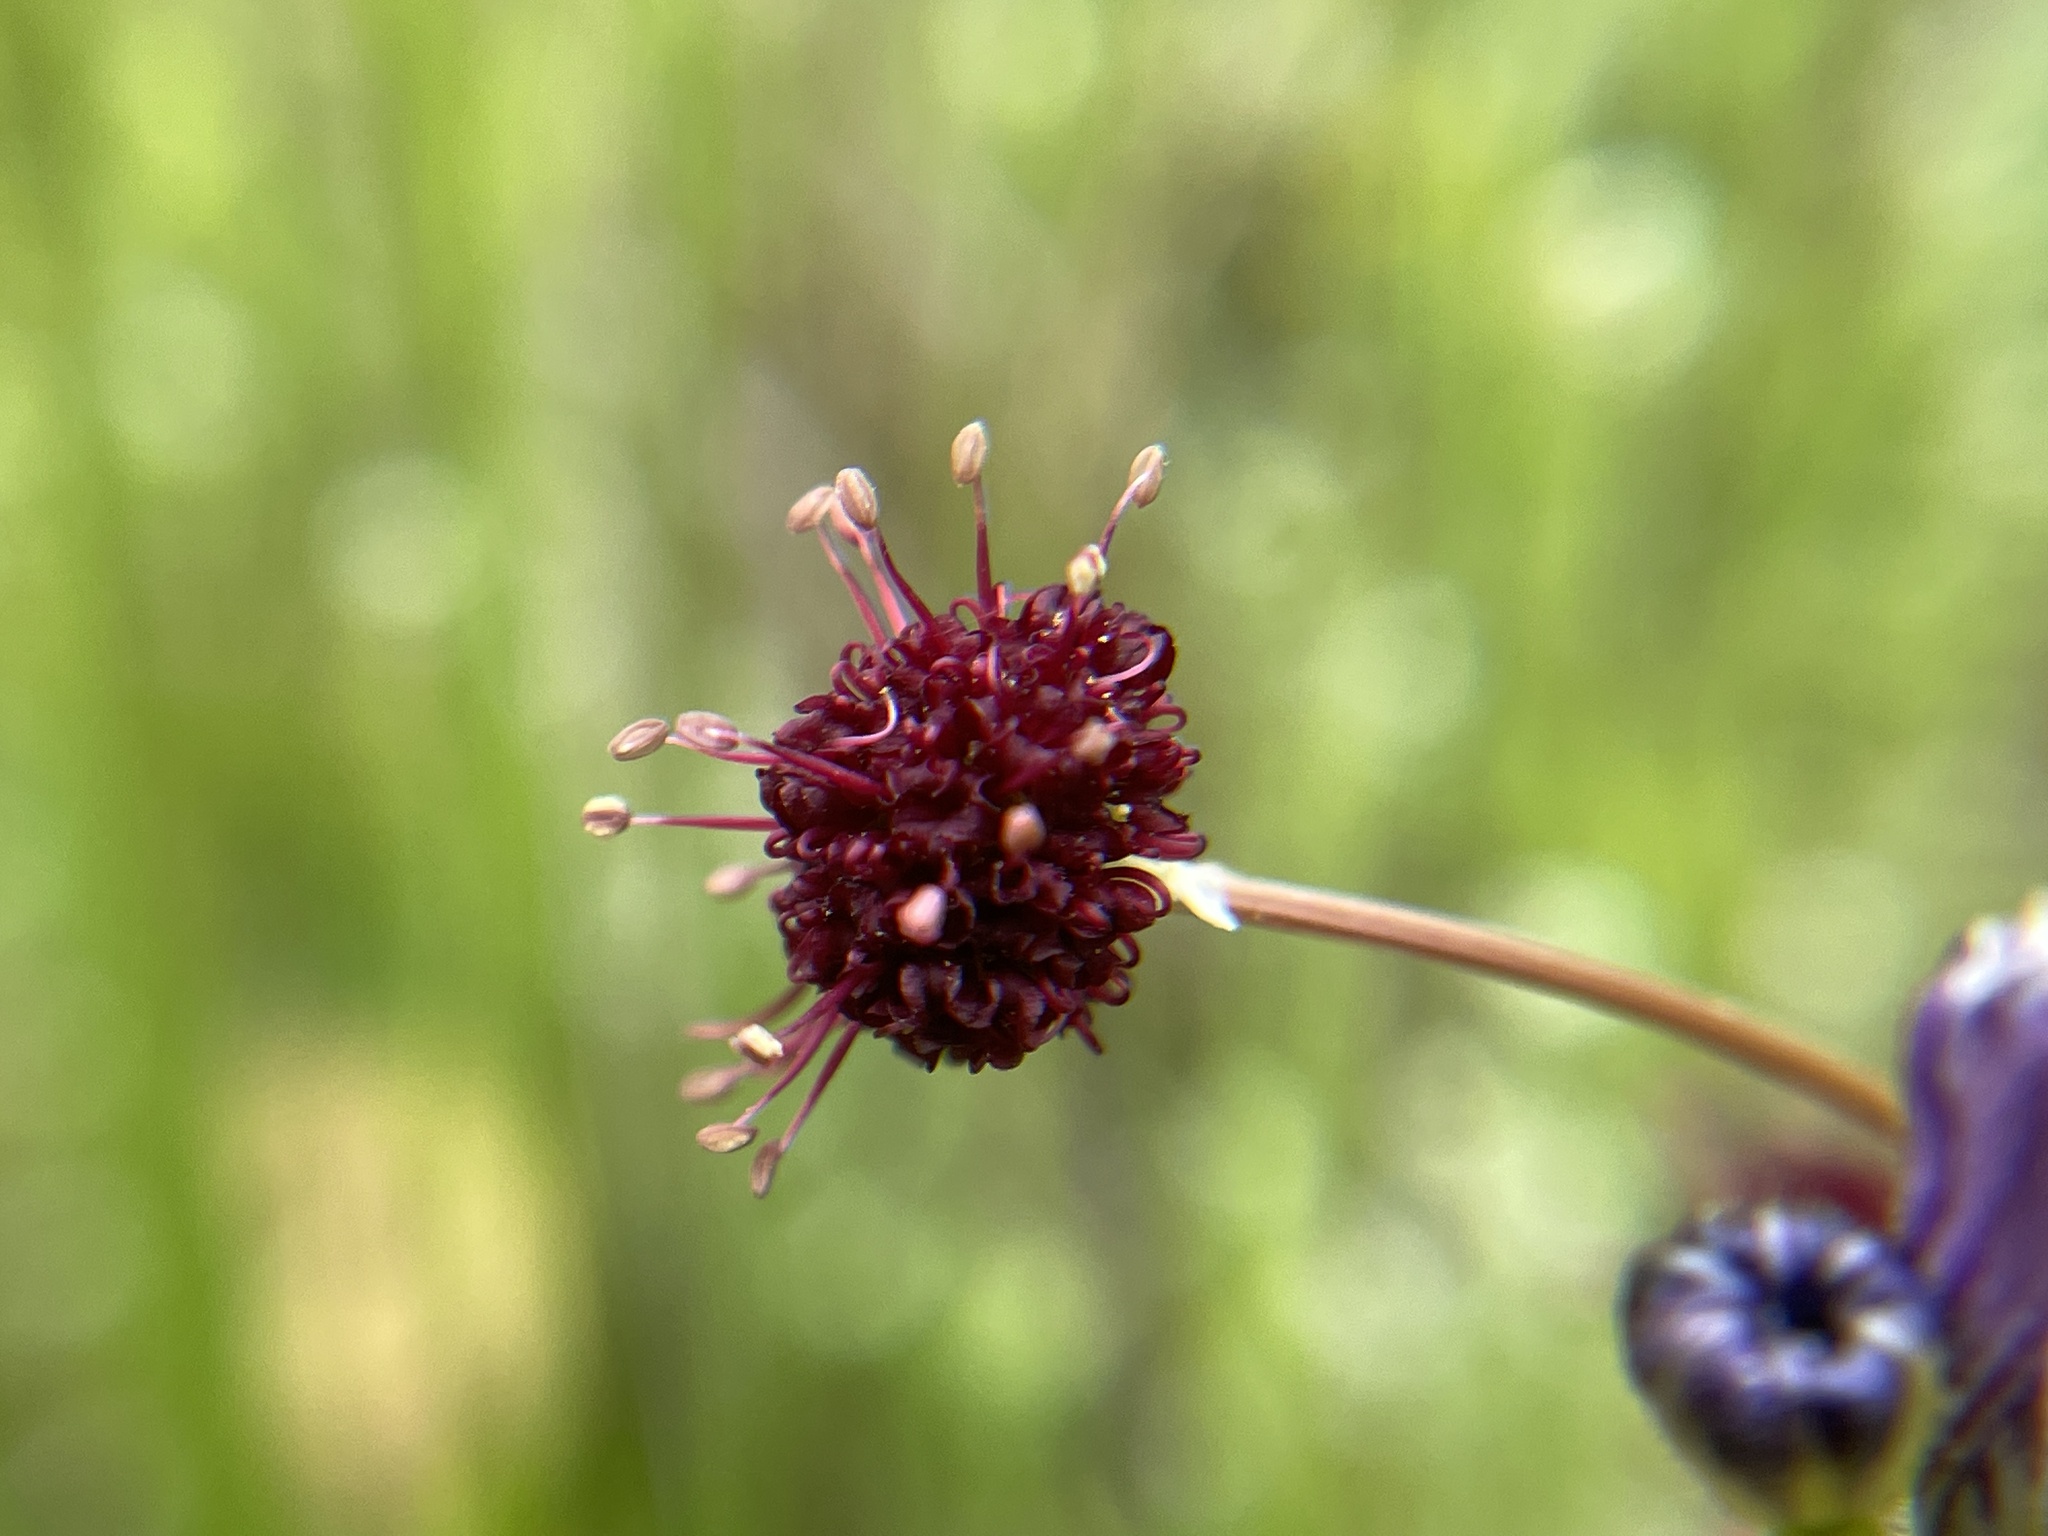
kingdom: Plantae
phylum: Tracheophyta
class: Magnoliopsida
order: Apiales
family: Apiaceae
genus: Sanicula
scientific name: Sanicula bipinnatifida
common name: Shoe-buttons
